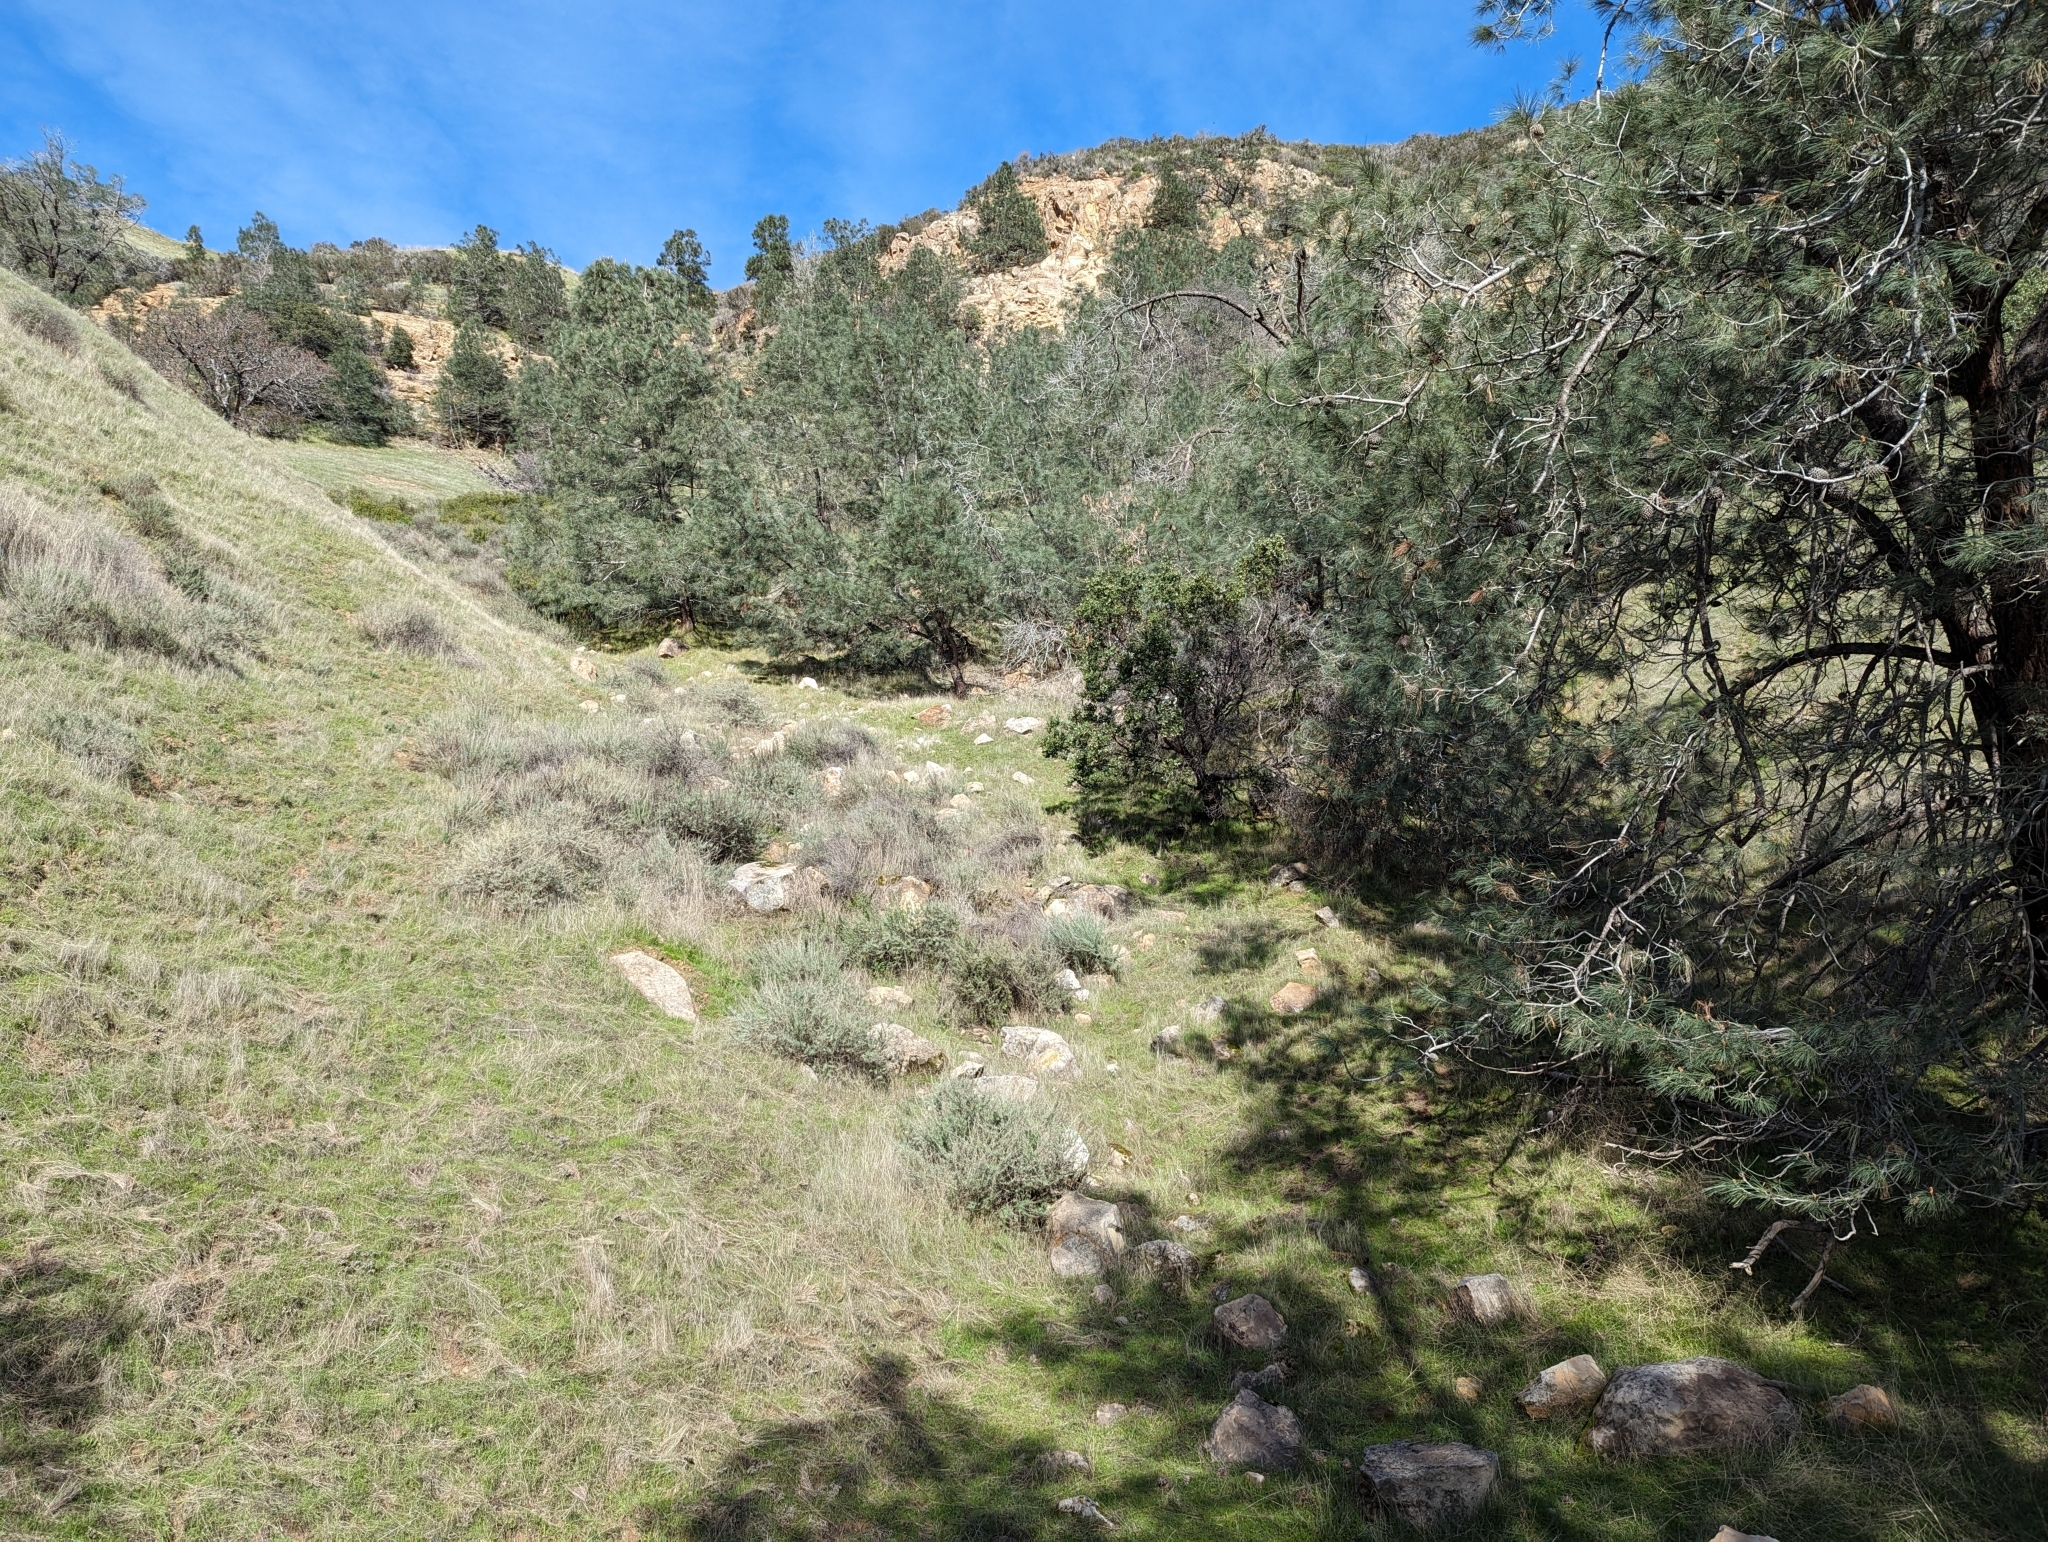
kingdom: Plantae
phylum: Tracheophyta
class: Magnoliopsida
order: Ericales
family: Ericaceae
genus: Arctostaphylos
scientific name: Arctostaphylos manzanita
